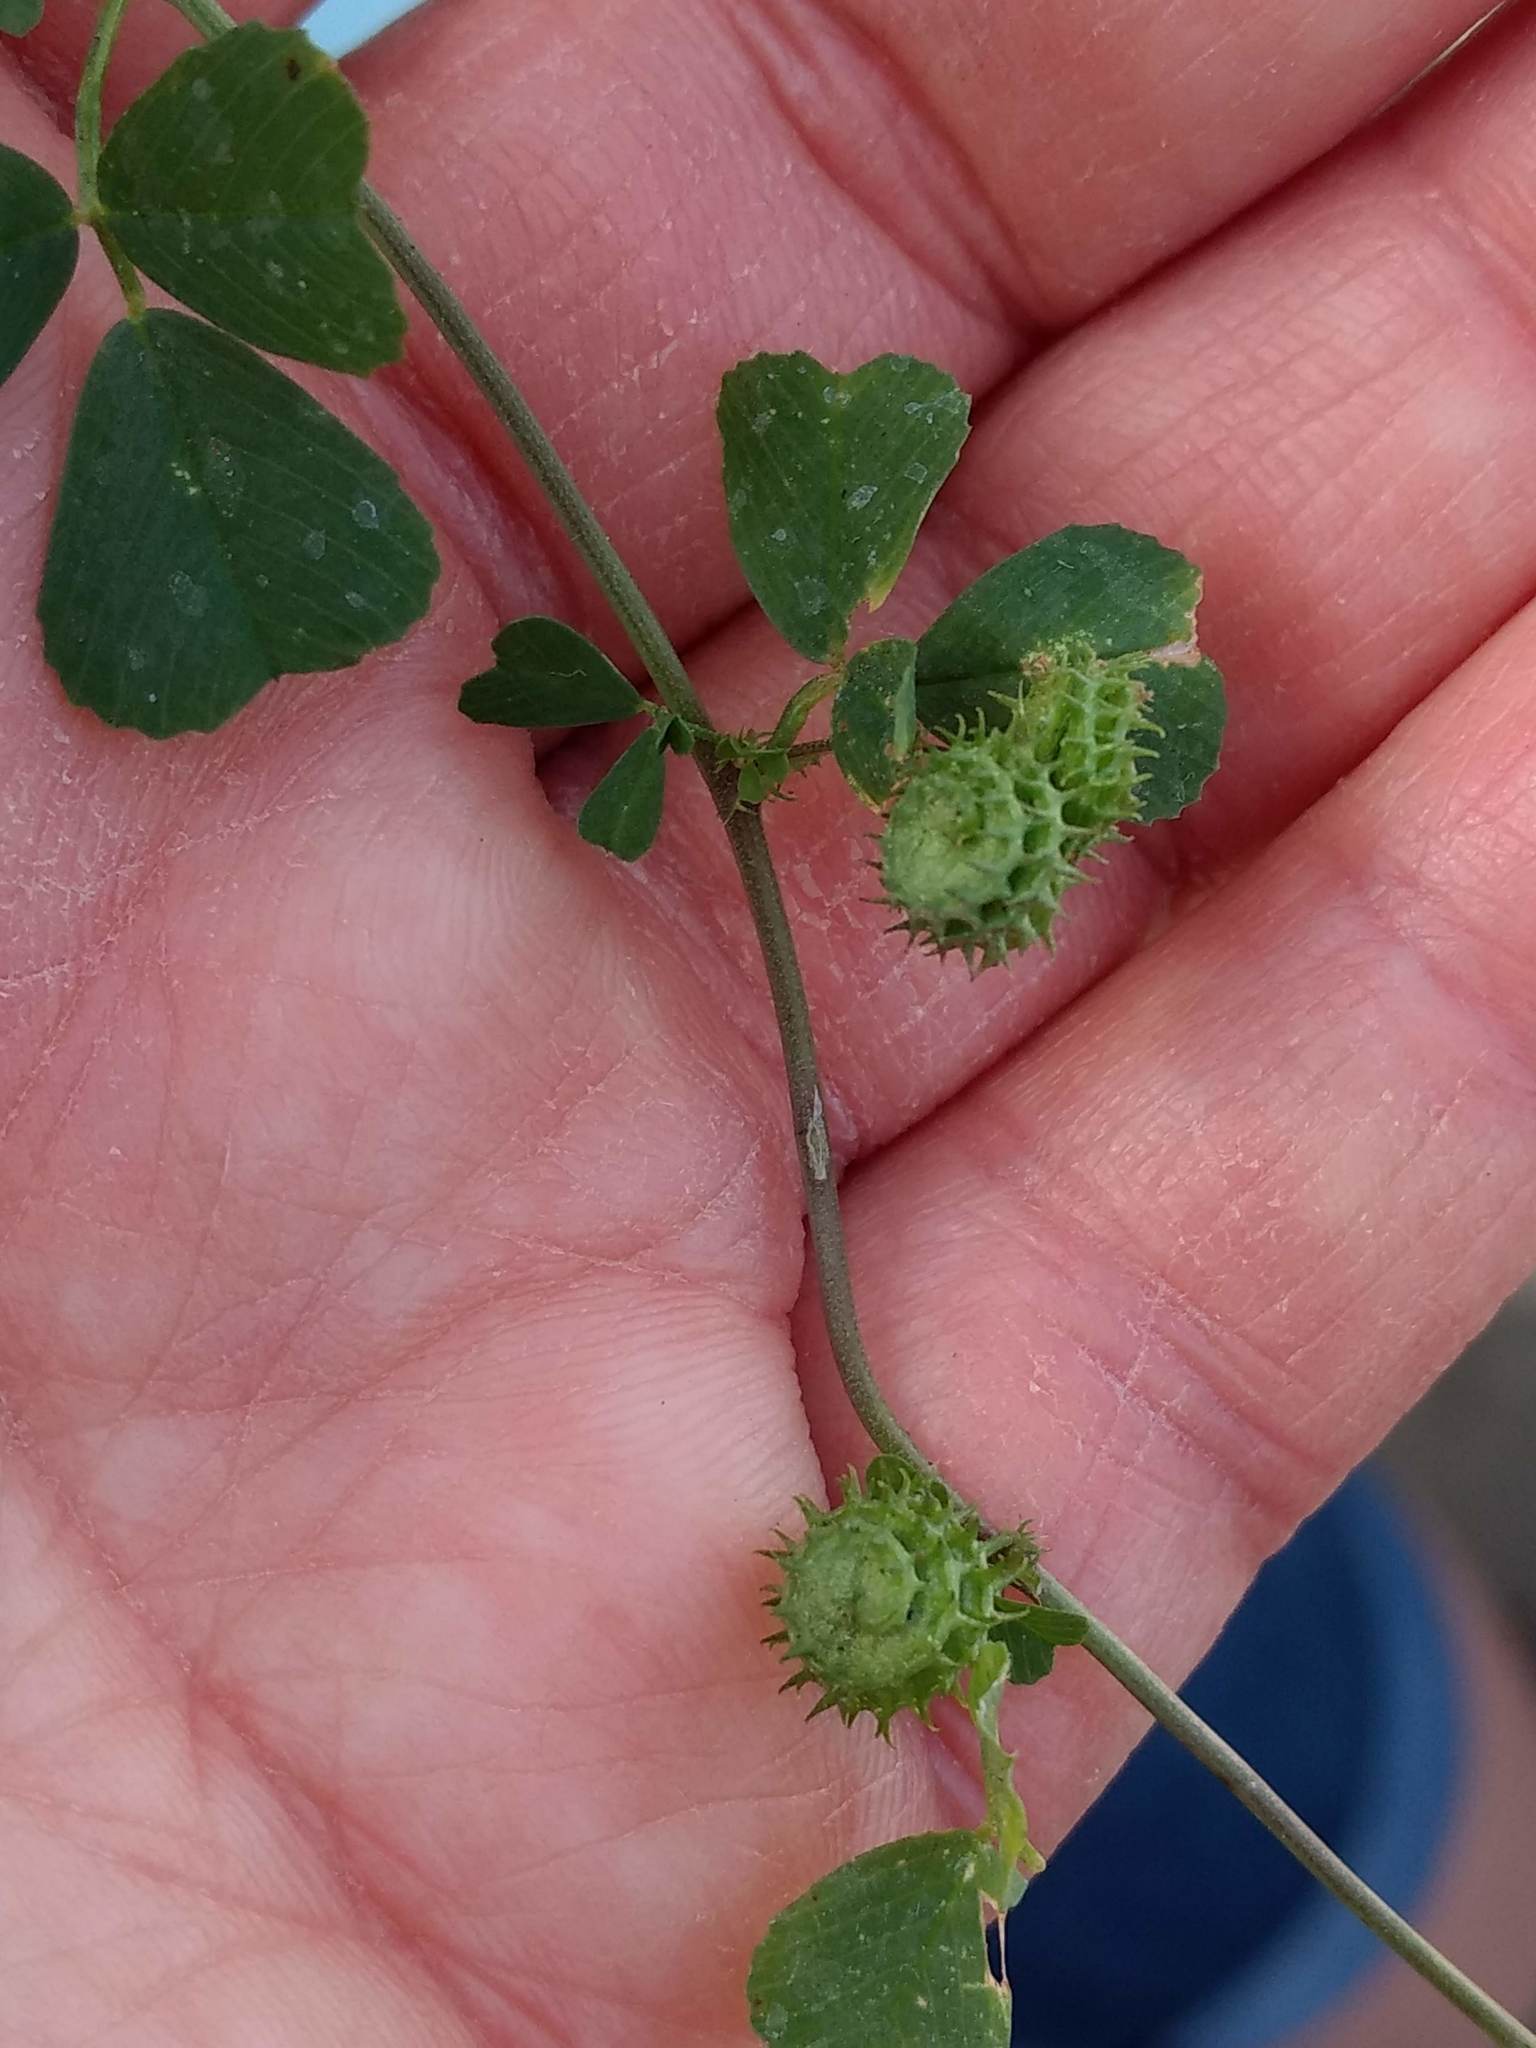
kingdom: Plantae
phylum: Tracheophyta
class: Magnoliopsida
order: Fabales
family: Fabaceae
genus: Medicago
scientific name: Medicago polymorpha
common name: Burclover
